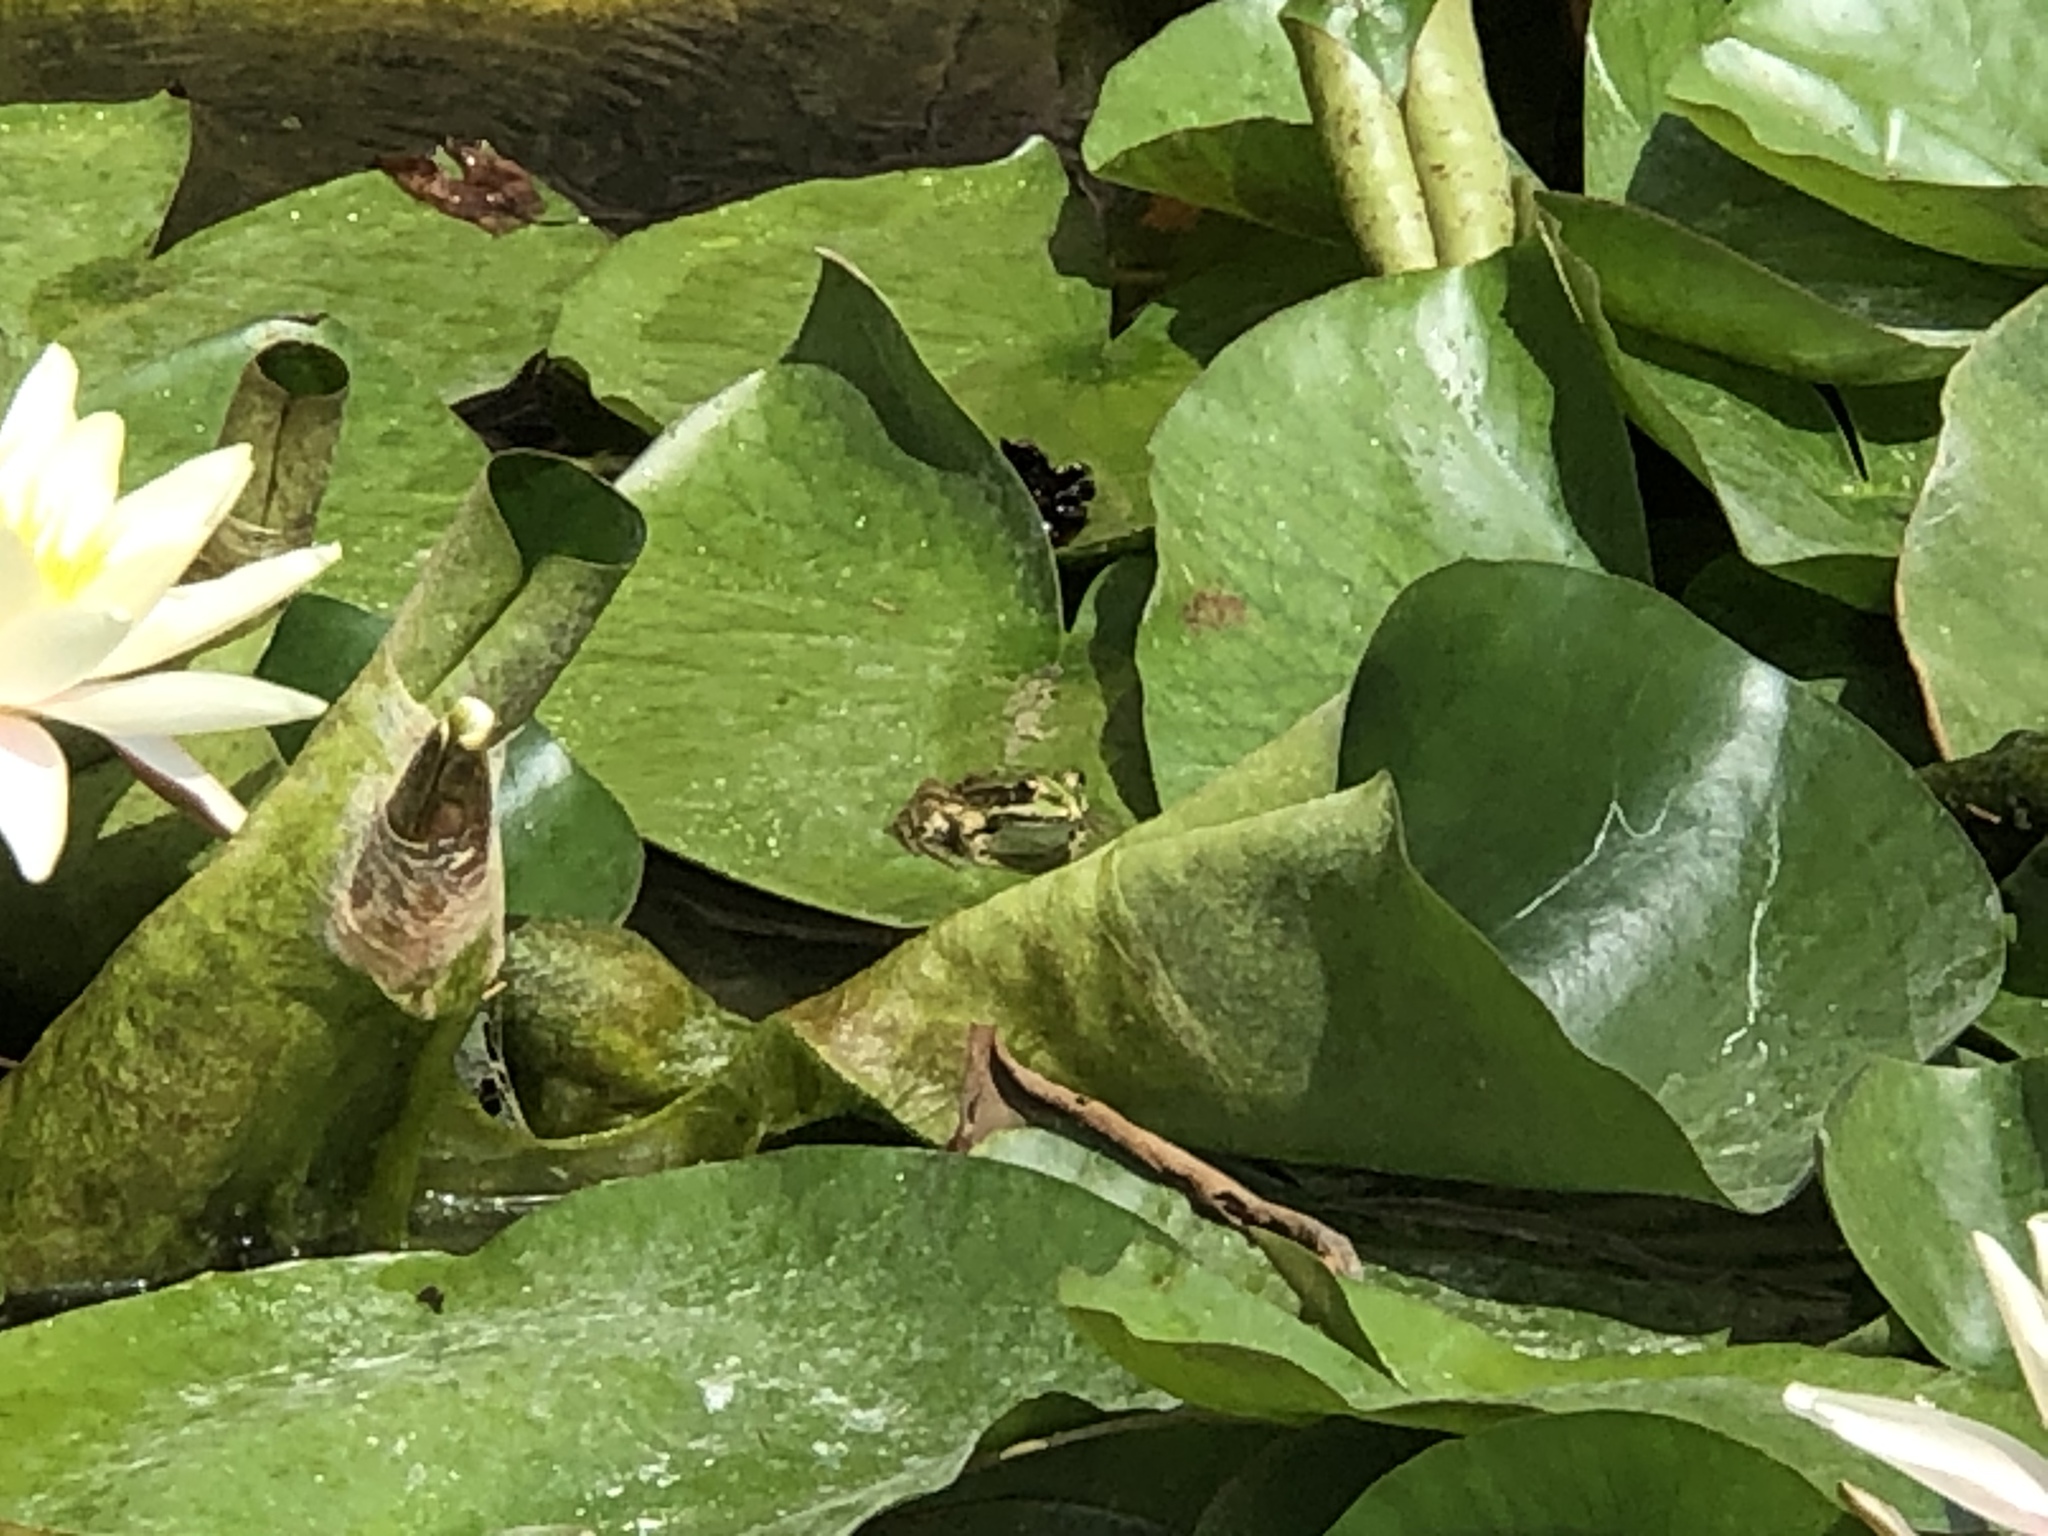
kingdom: Animalia
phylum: Chordata
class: Amphibia
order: Anura
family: Ranidae
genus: Pelophylax
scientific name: Pelophylax perezi
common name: Perez's frog
